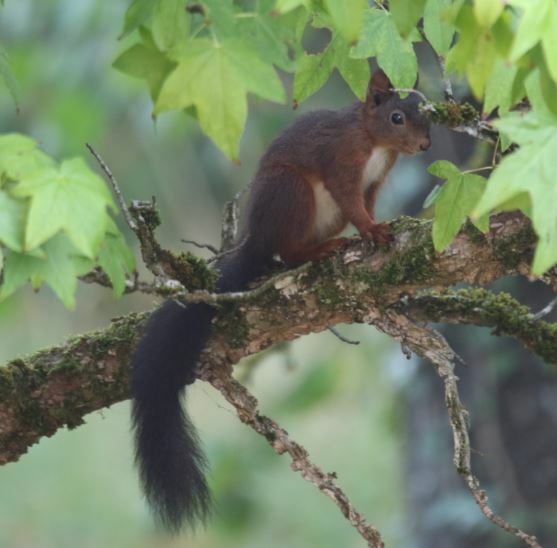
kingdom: Animalia
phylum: Chordata
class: Mammalia
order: Rodentia
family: Sciuridae
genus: Sciurus
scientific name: Sciurus vulgaris
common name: Eurasian red squirrel
